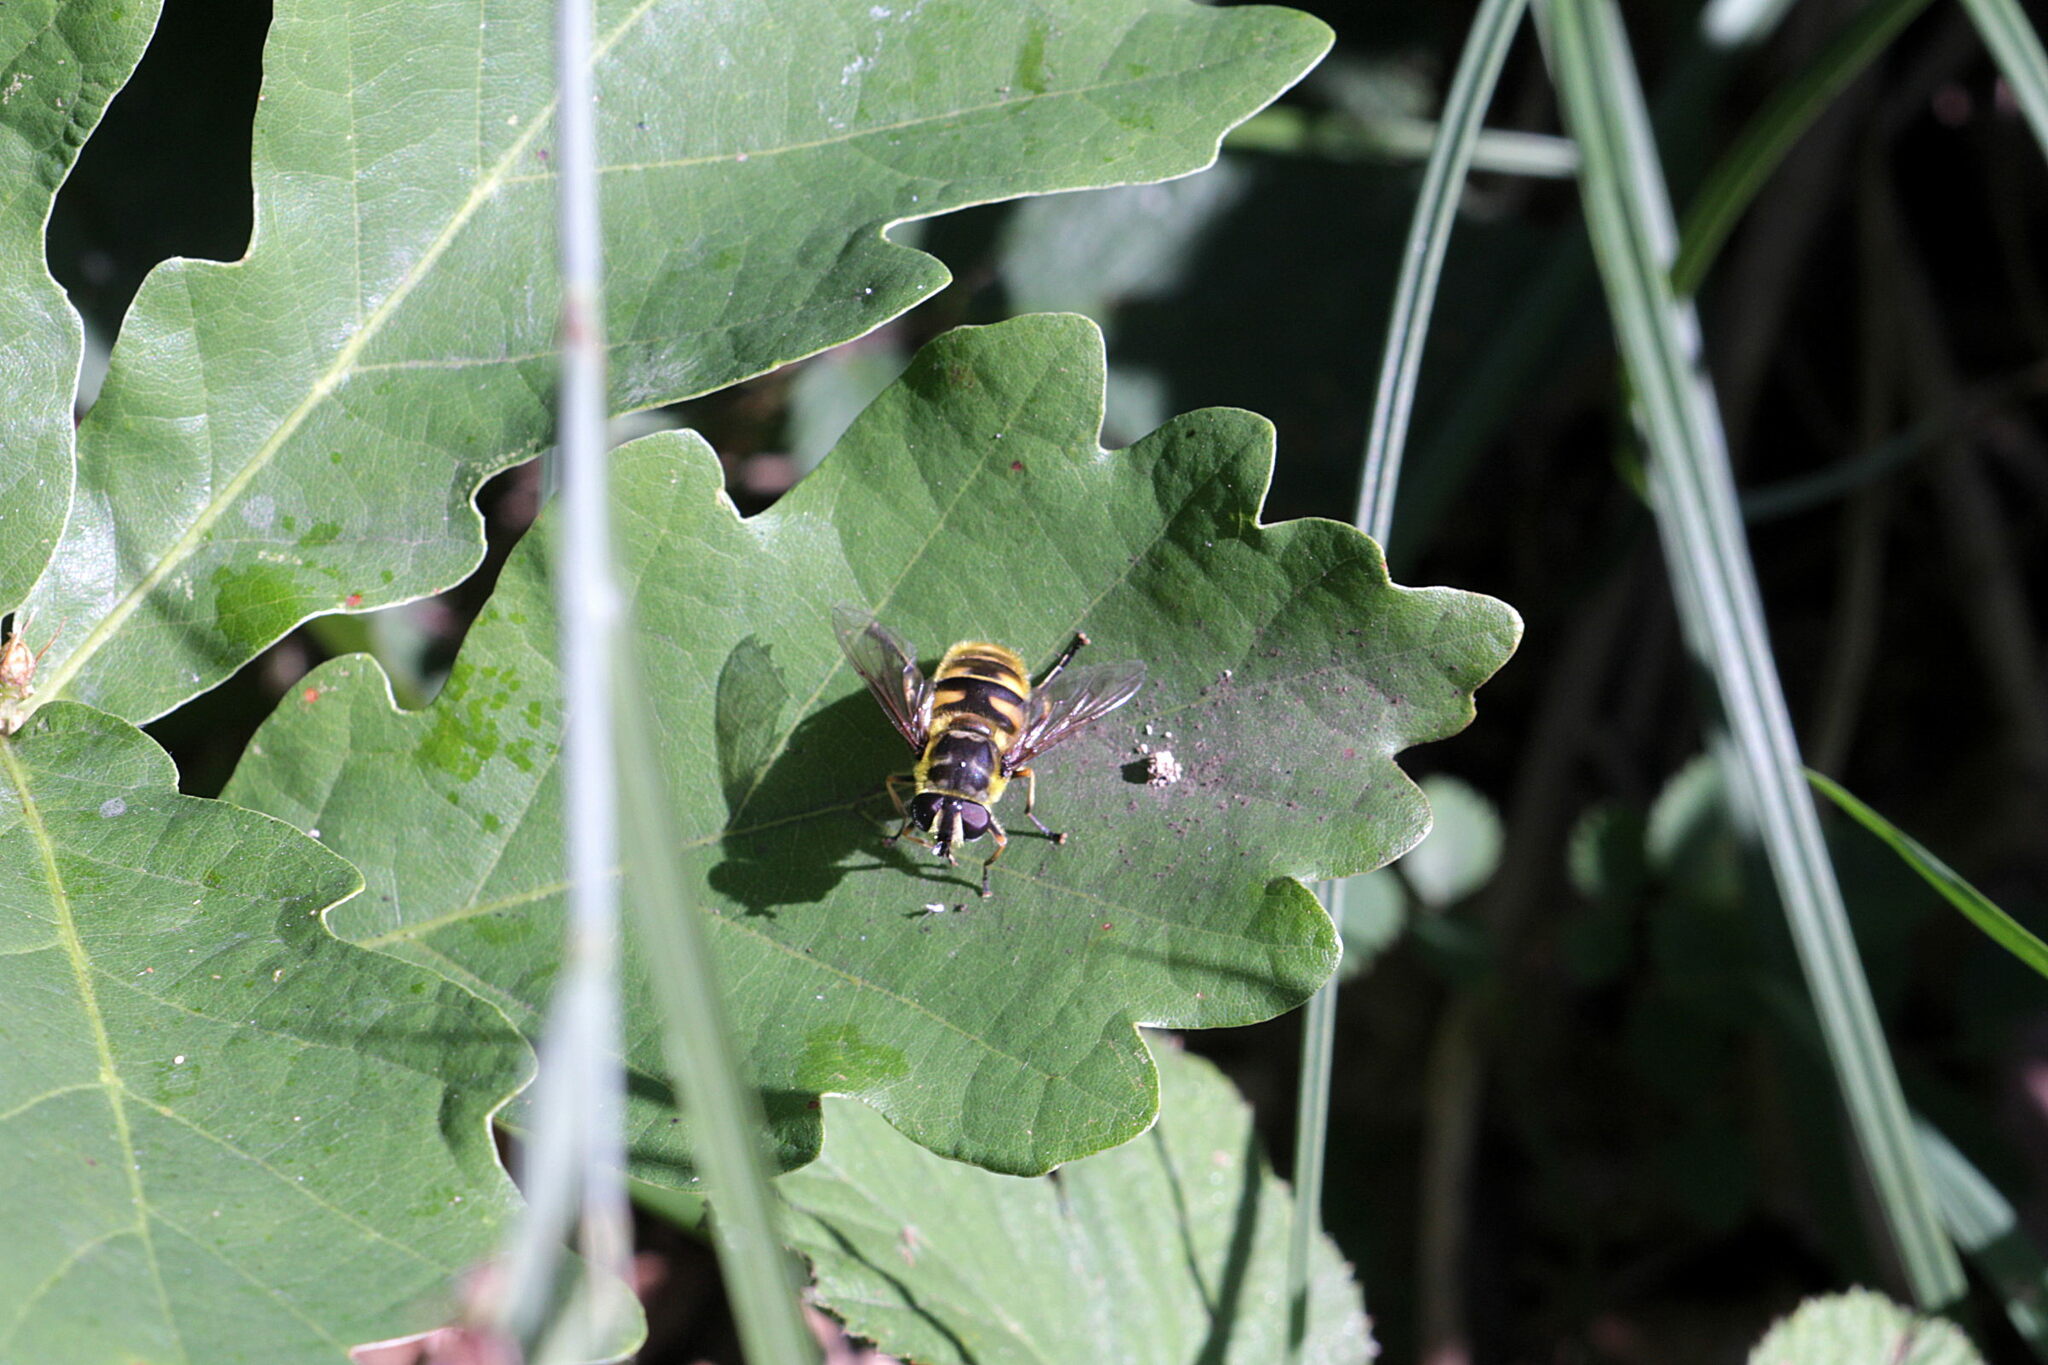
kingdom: Animalia
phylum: Arthropoda
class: Insecta
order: Diptera
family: Syrphidae
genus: Myathropa
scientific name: Myathropa florea
